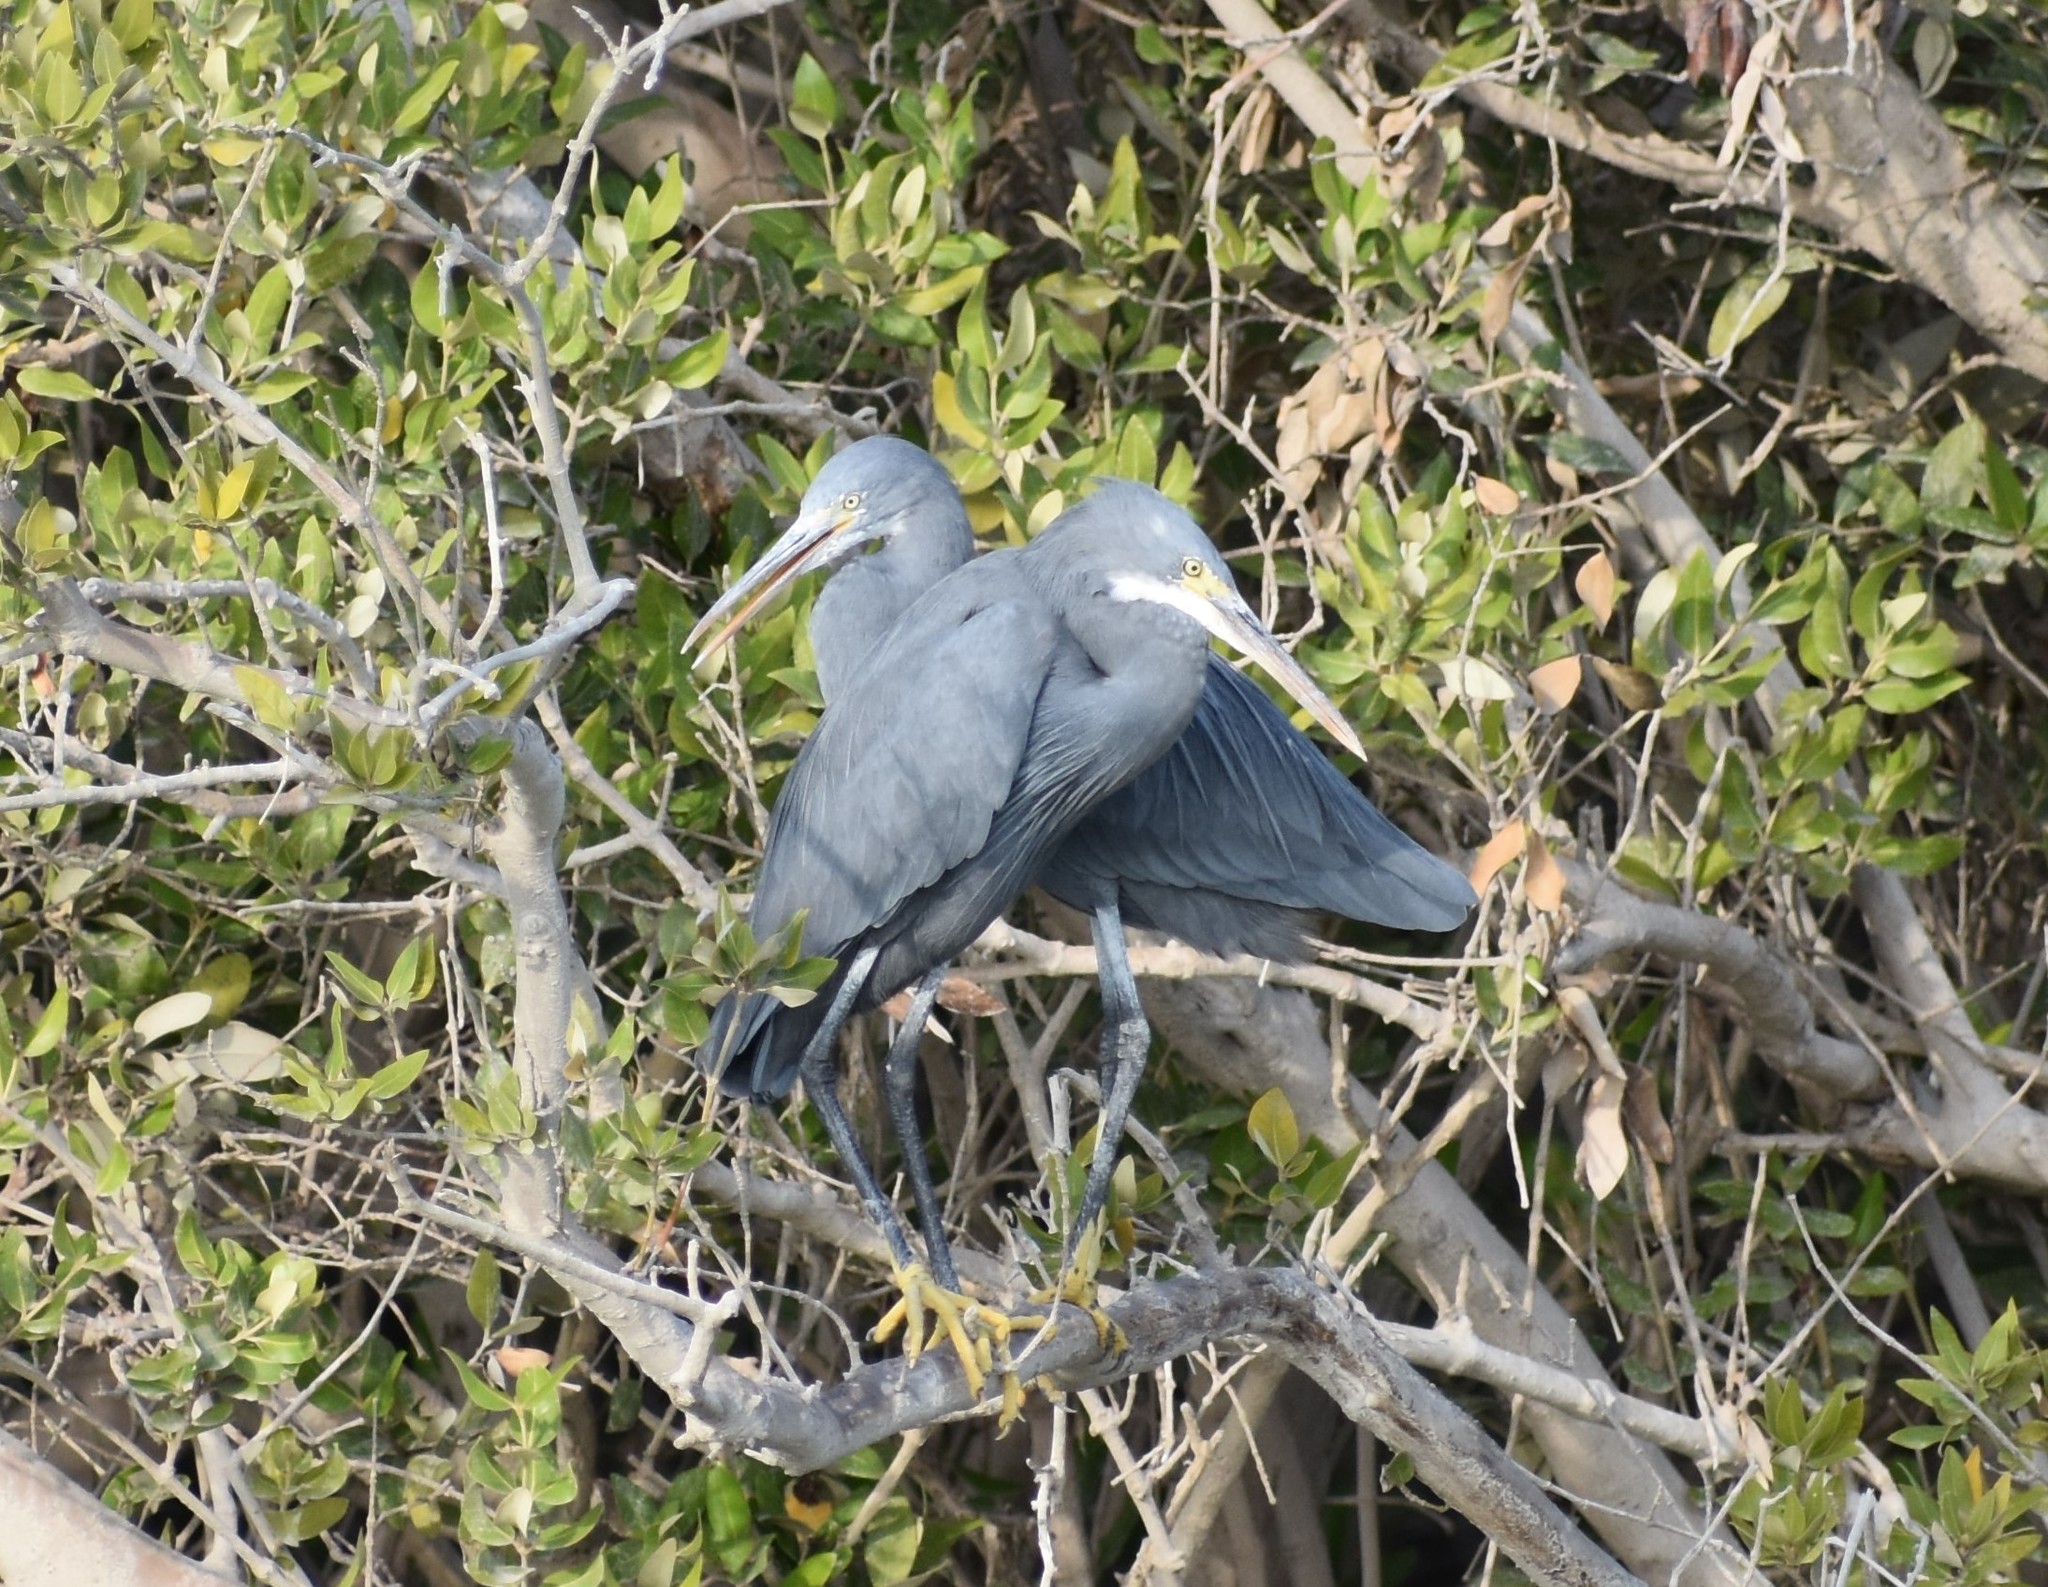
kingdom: Animalia
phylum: Chordata
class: Aves
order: Pelecaniformes
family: Ardeidae
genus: Egretta
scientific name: Egretta gularis
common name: Western reef-heron
